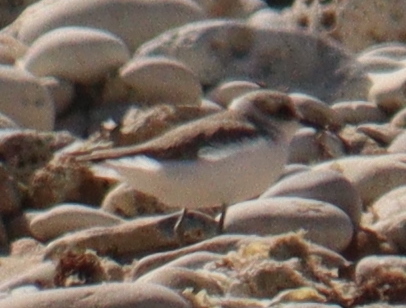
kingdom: Animalia
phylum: Chordata
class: Aves
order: Charadriiformes
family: Charadriidae
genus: Charadrius
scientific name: Charadrius alexandrinus
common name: Kentish plover
